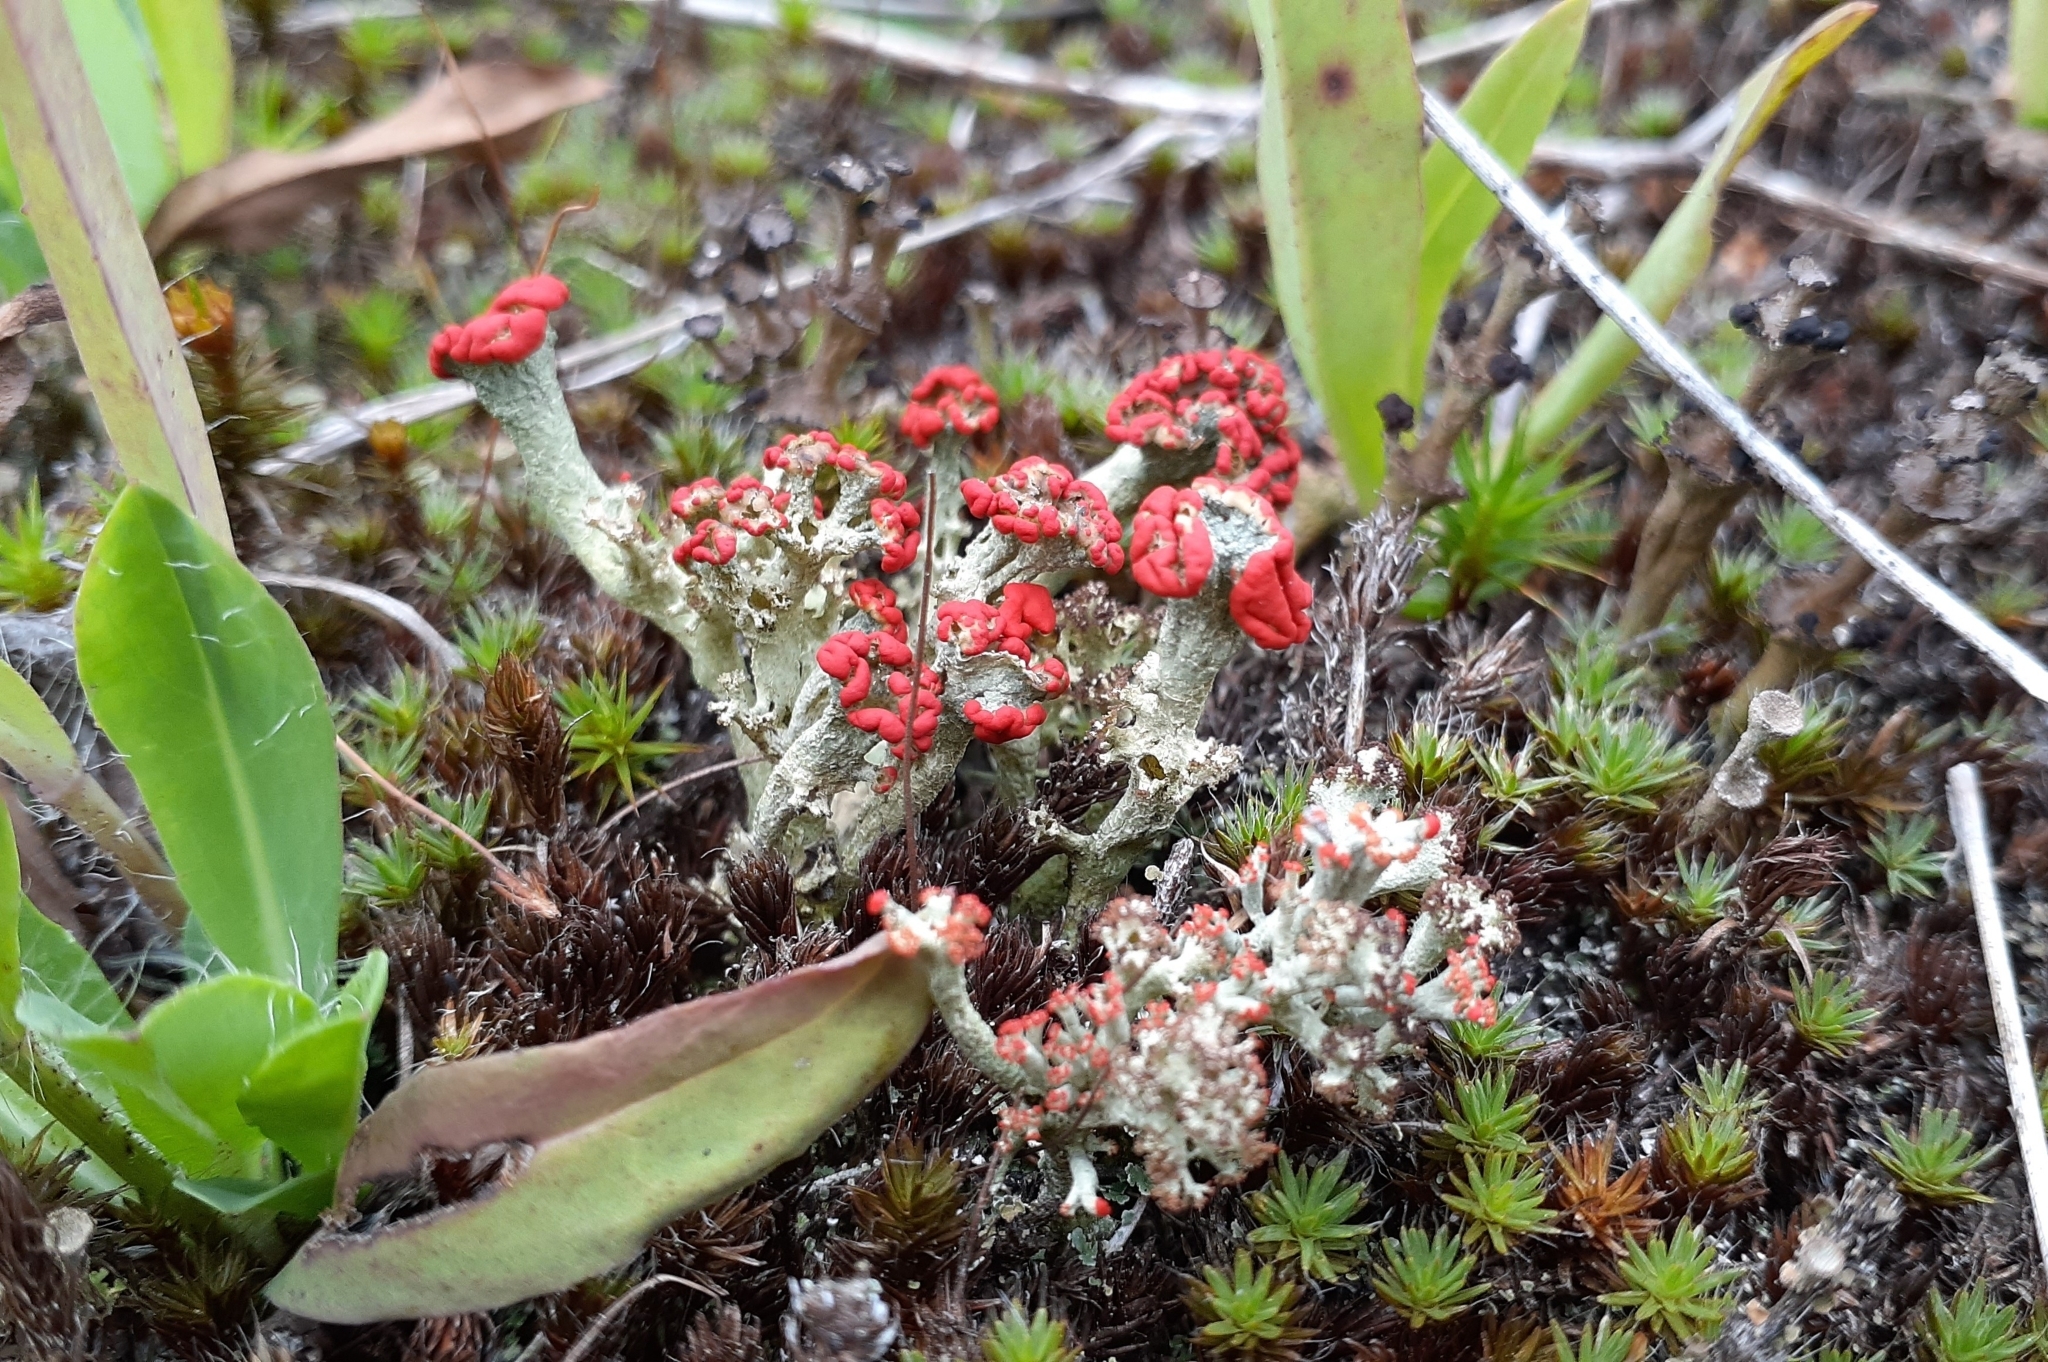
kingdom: Fungi
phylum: Ascomycota
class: Lecanoromycetes
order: Lecanorales
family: Cladoniaceae
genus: Cladonia
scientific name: Cladonia cristatella
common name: British soldier lichen
